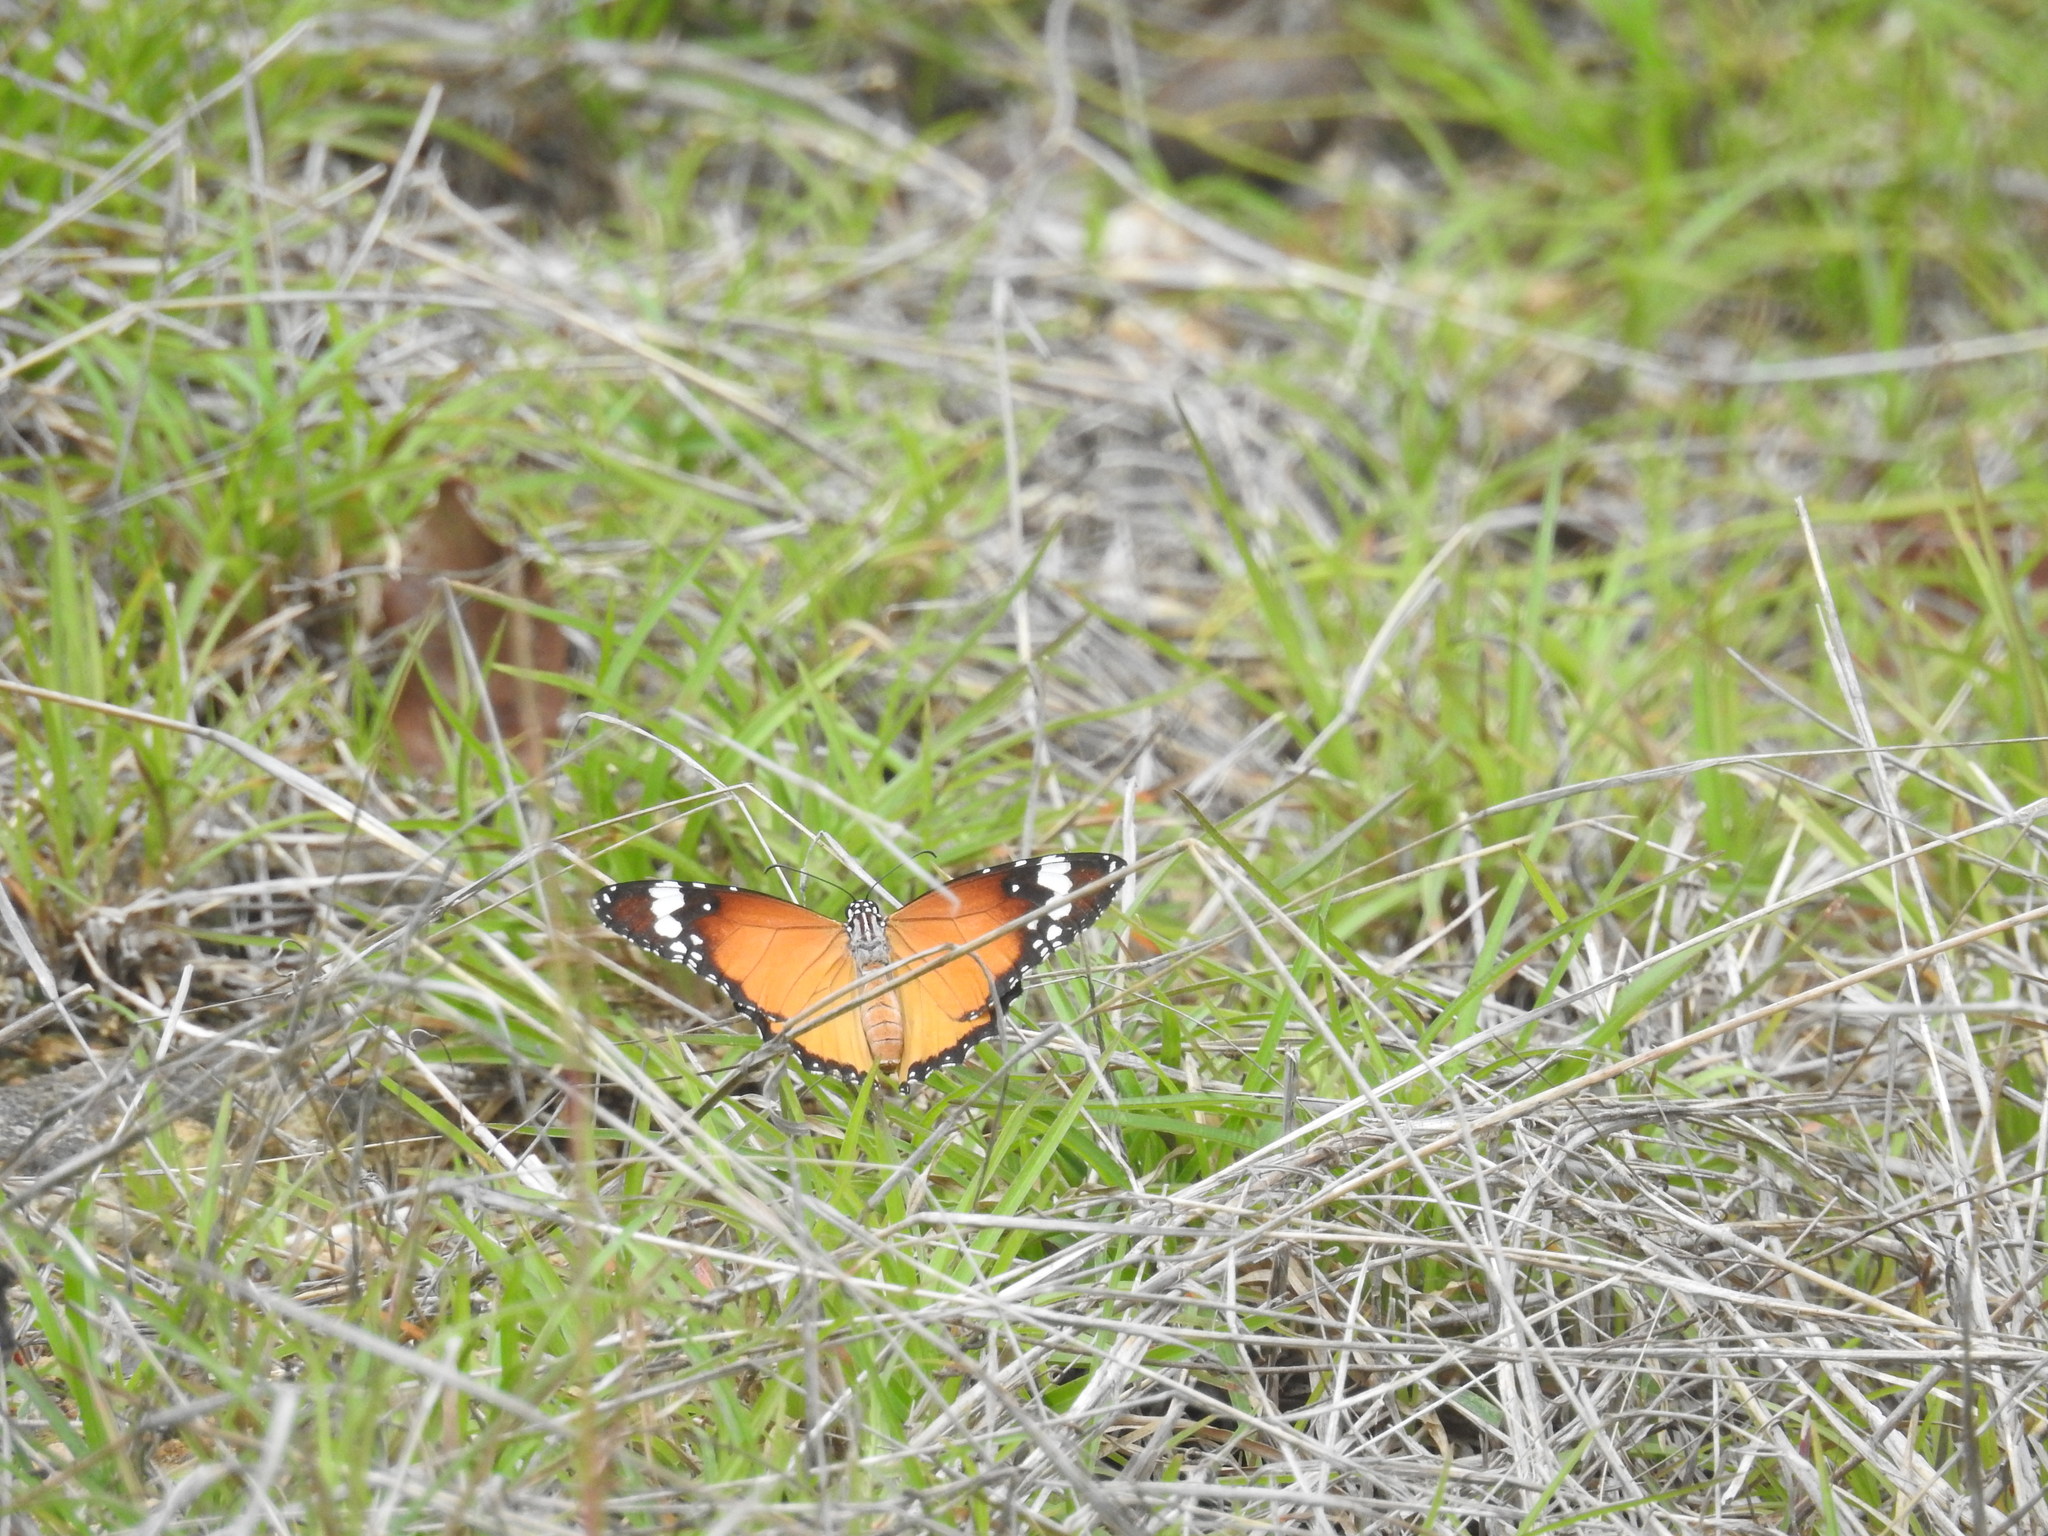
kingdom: Animalia
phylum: Arthropoda
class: Insecta
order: Lepidoptera
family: Nymphalidae
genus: Danaus
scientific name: Danaus chrysippus
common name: Plain tiger
